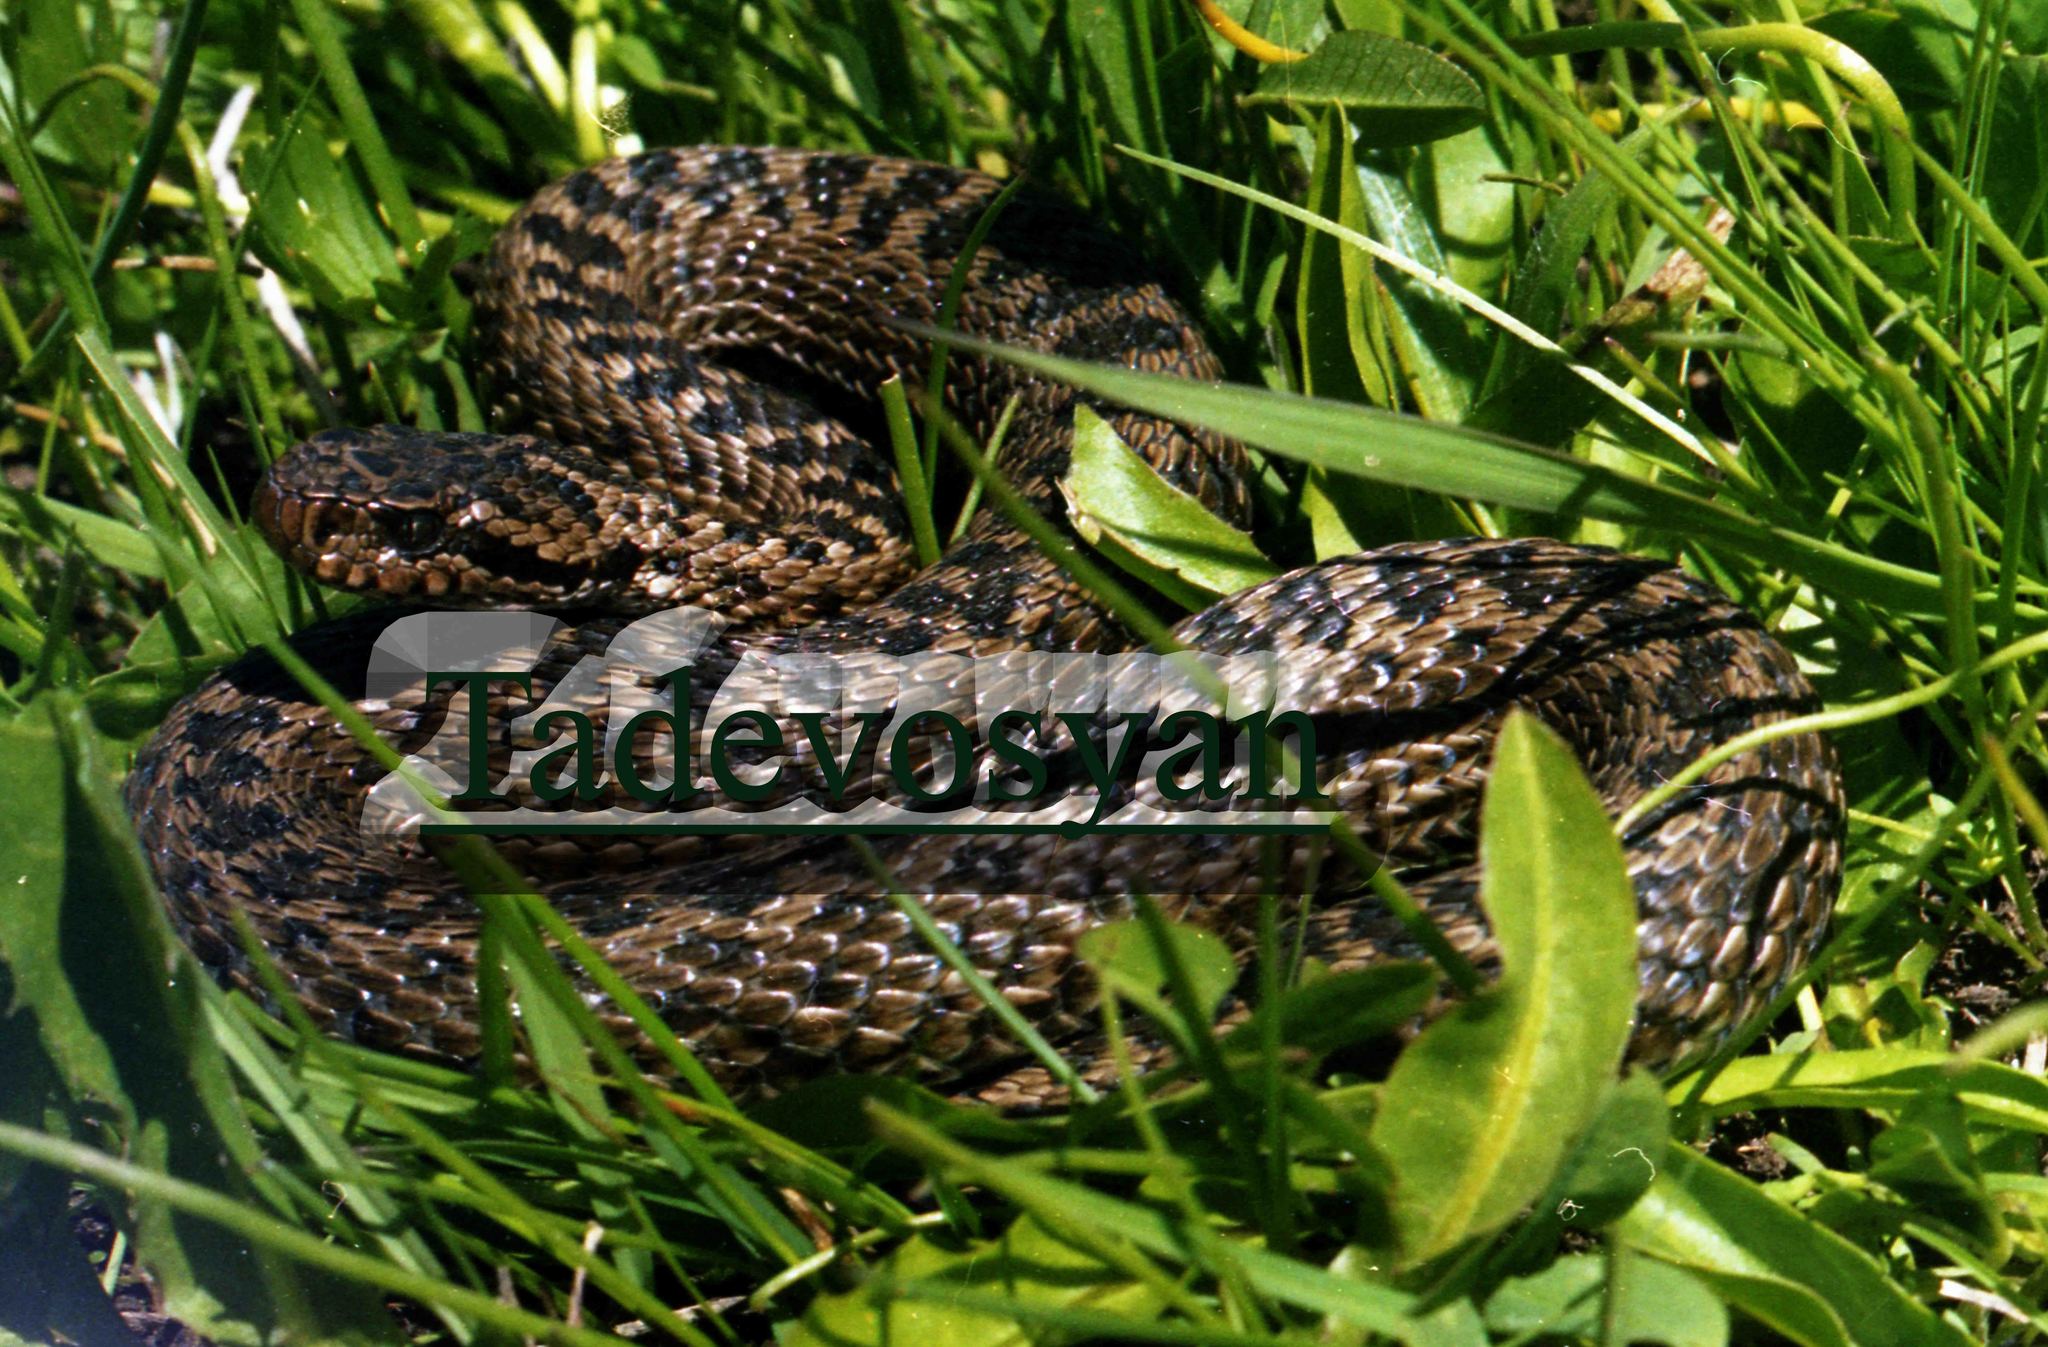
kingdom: Animalia
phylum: Chordata
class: Squamata
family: Viperidae
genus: Vipera
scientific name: Vipera eriwanensis
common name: Alburzi viper
